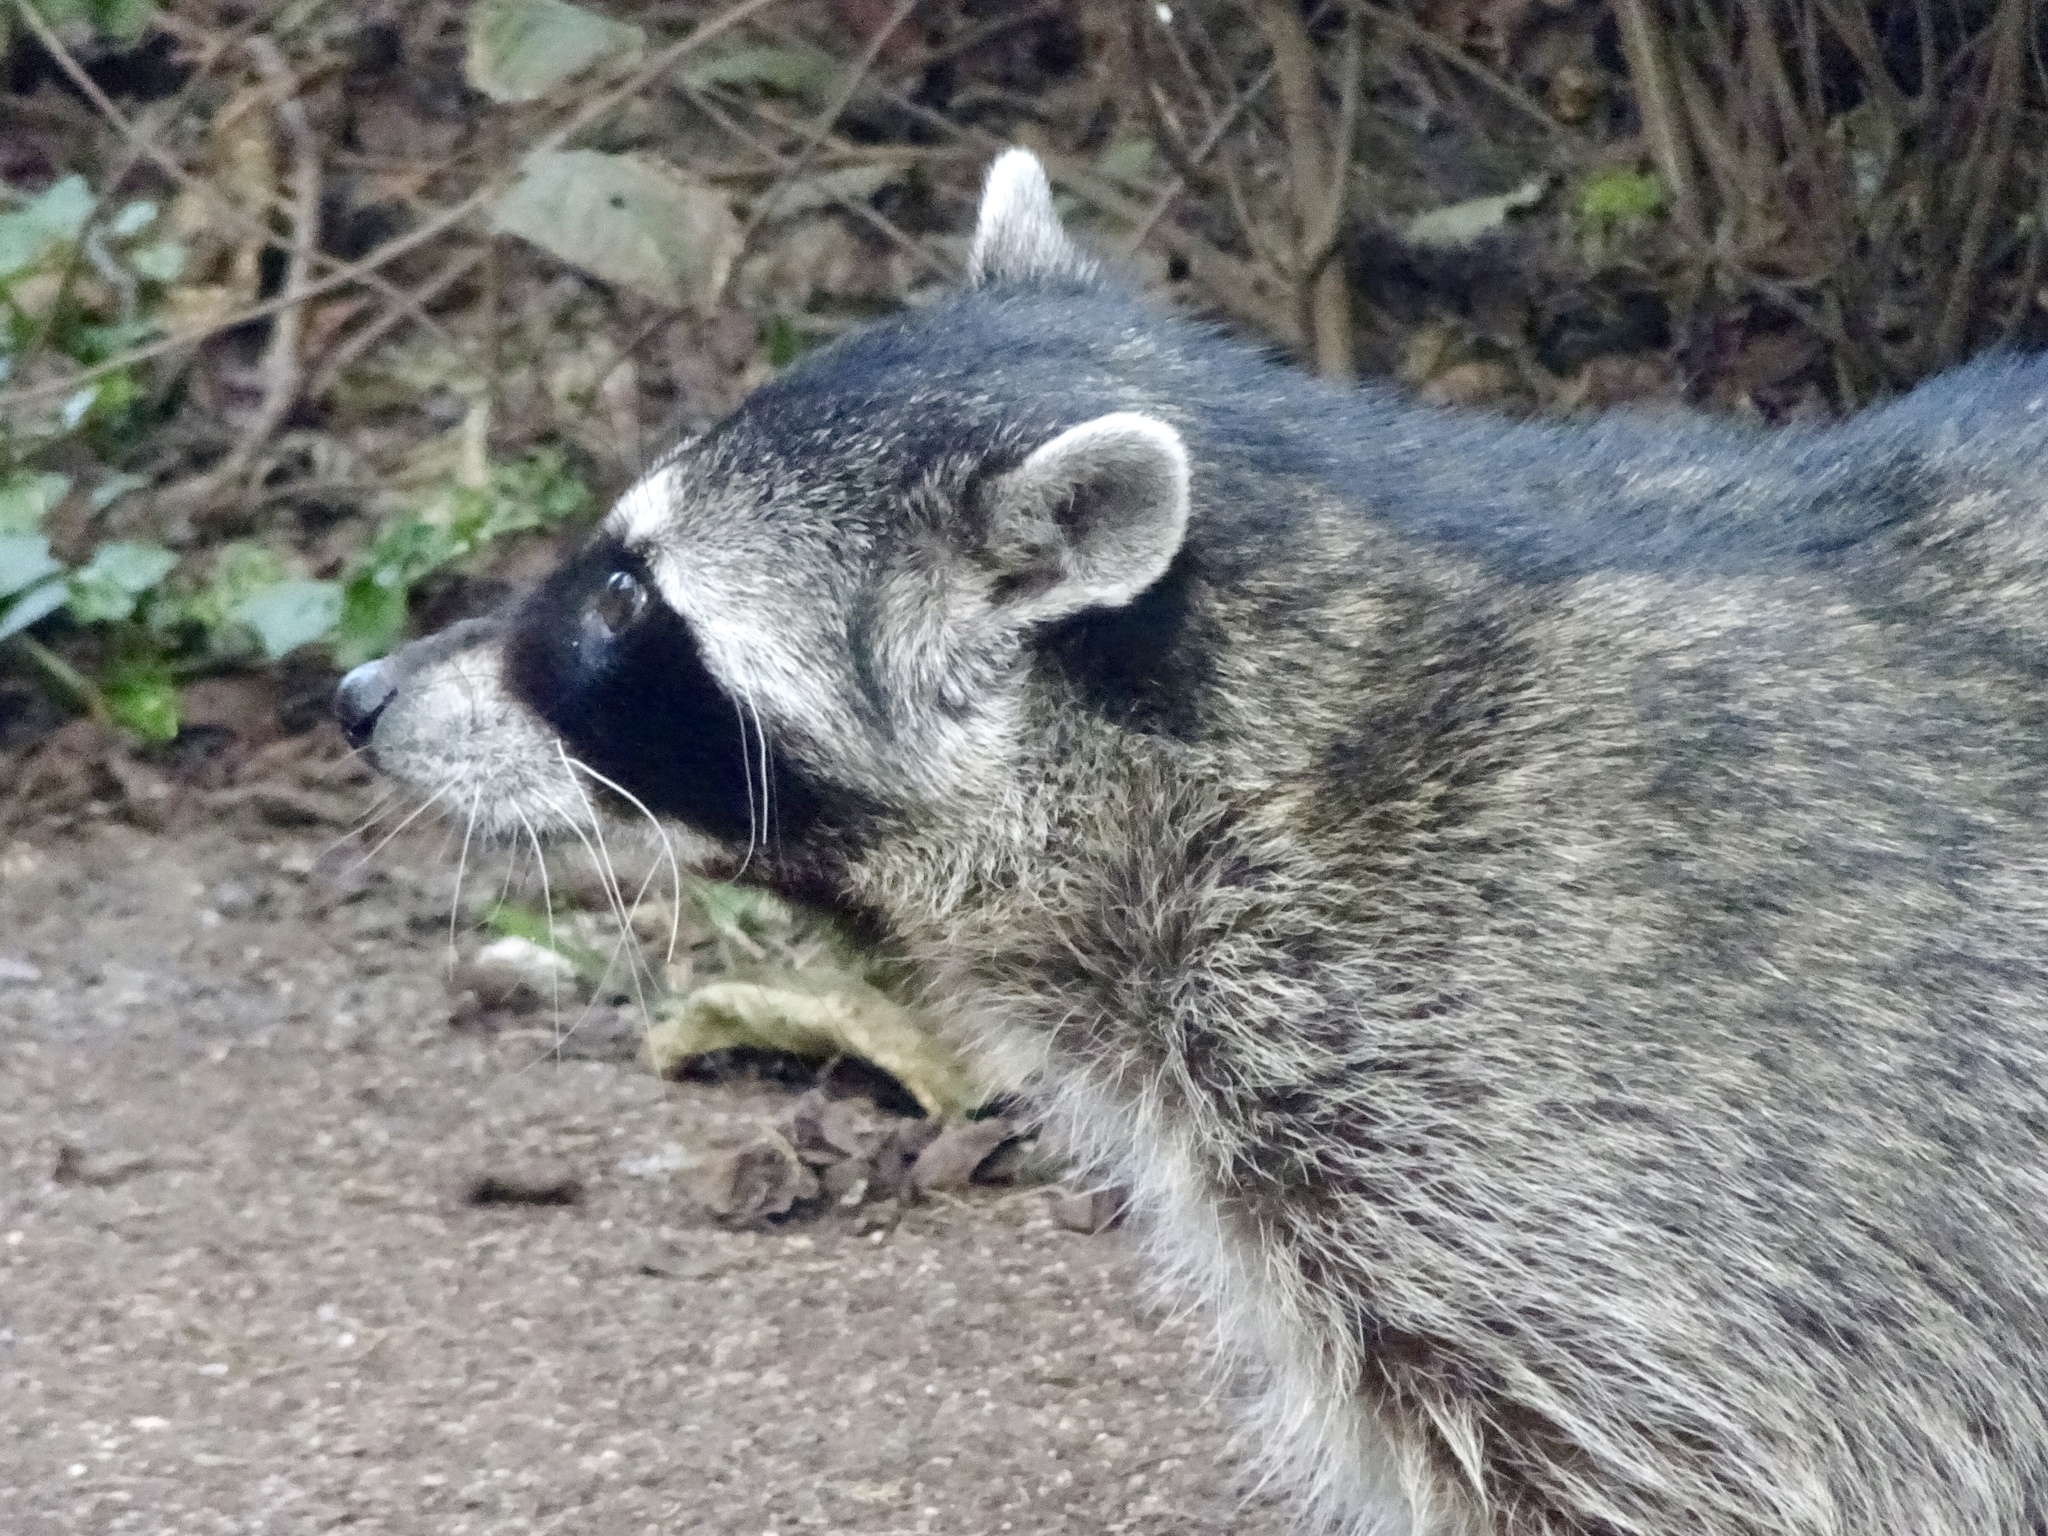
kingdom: Animalia
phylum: Chordata
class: Mammalia
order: Carnivora
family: Procyonidae
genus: Procyon
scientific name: Procyon lotor
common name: Raccoon
